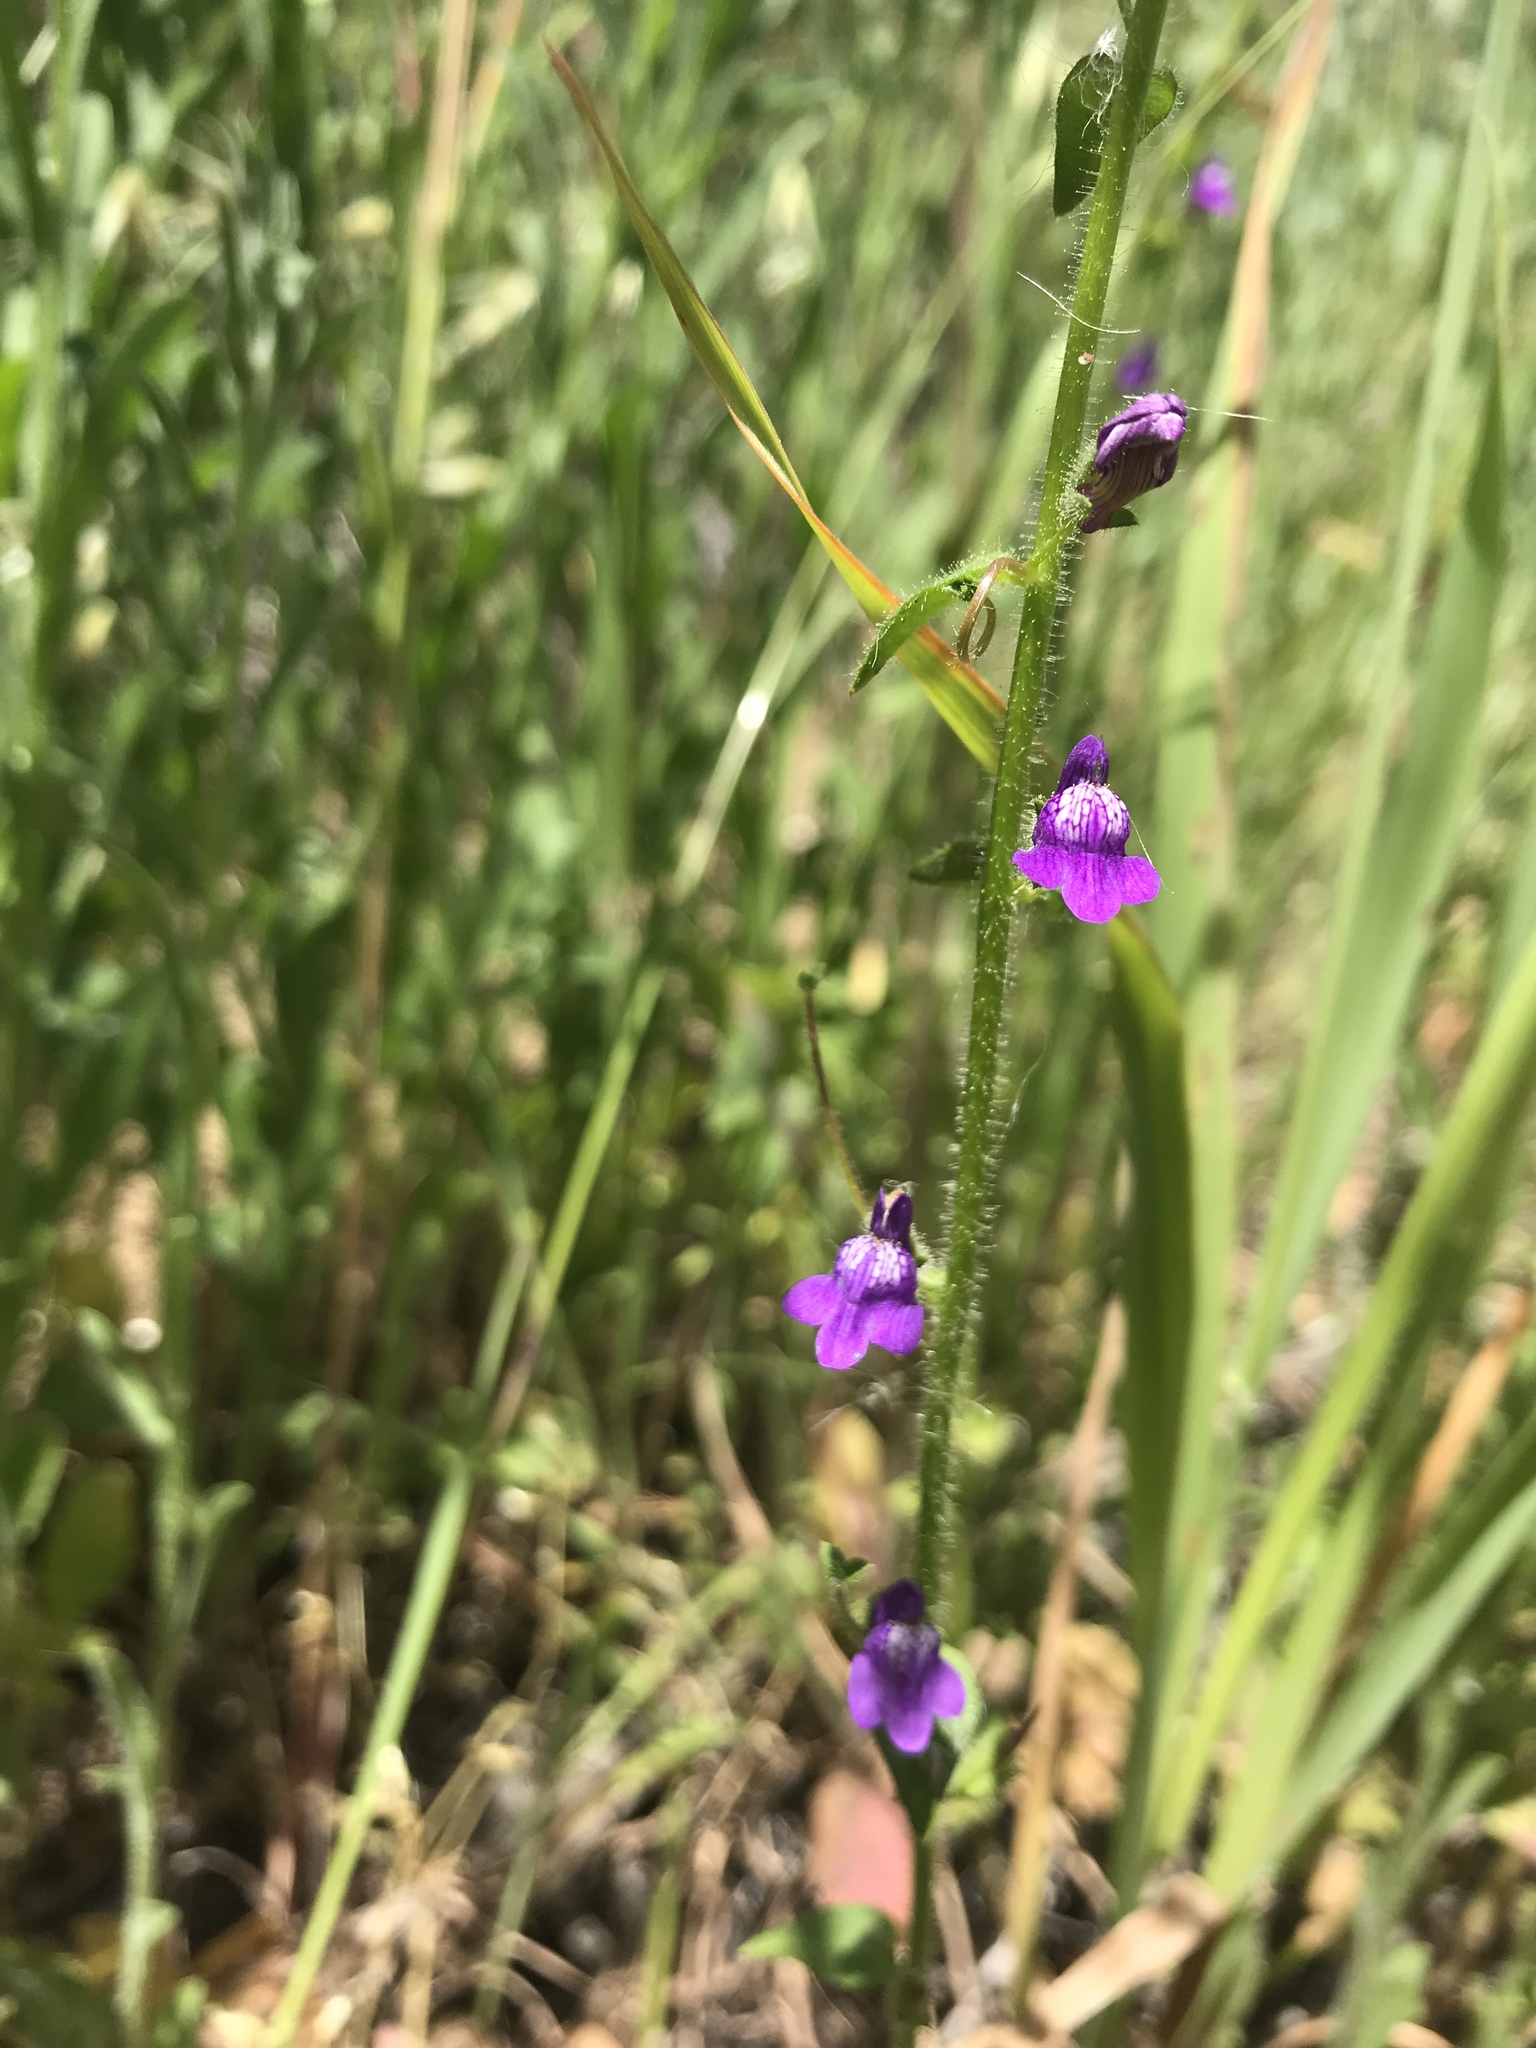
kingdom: Plantae
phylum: Tracheophyta
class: Magnoliopsida
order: Lamiales
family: Plantaginaceae
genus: Sairocarpus
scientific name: Sairocarpus nuttallianus
